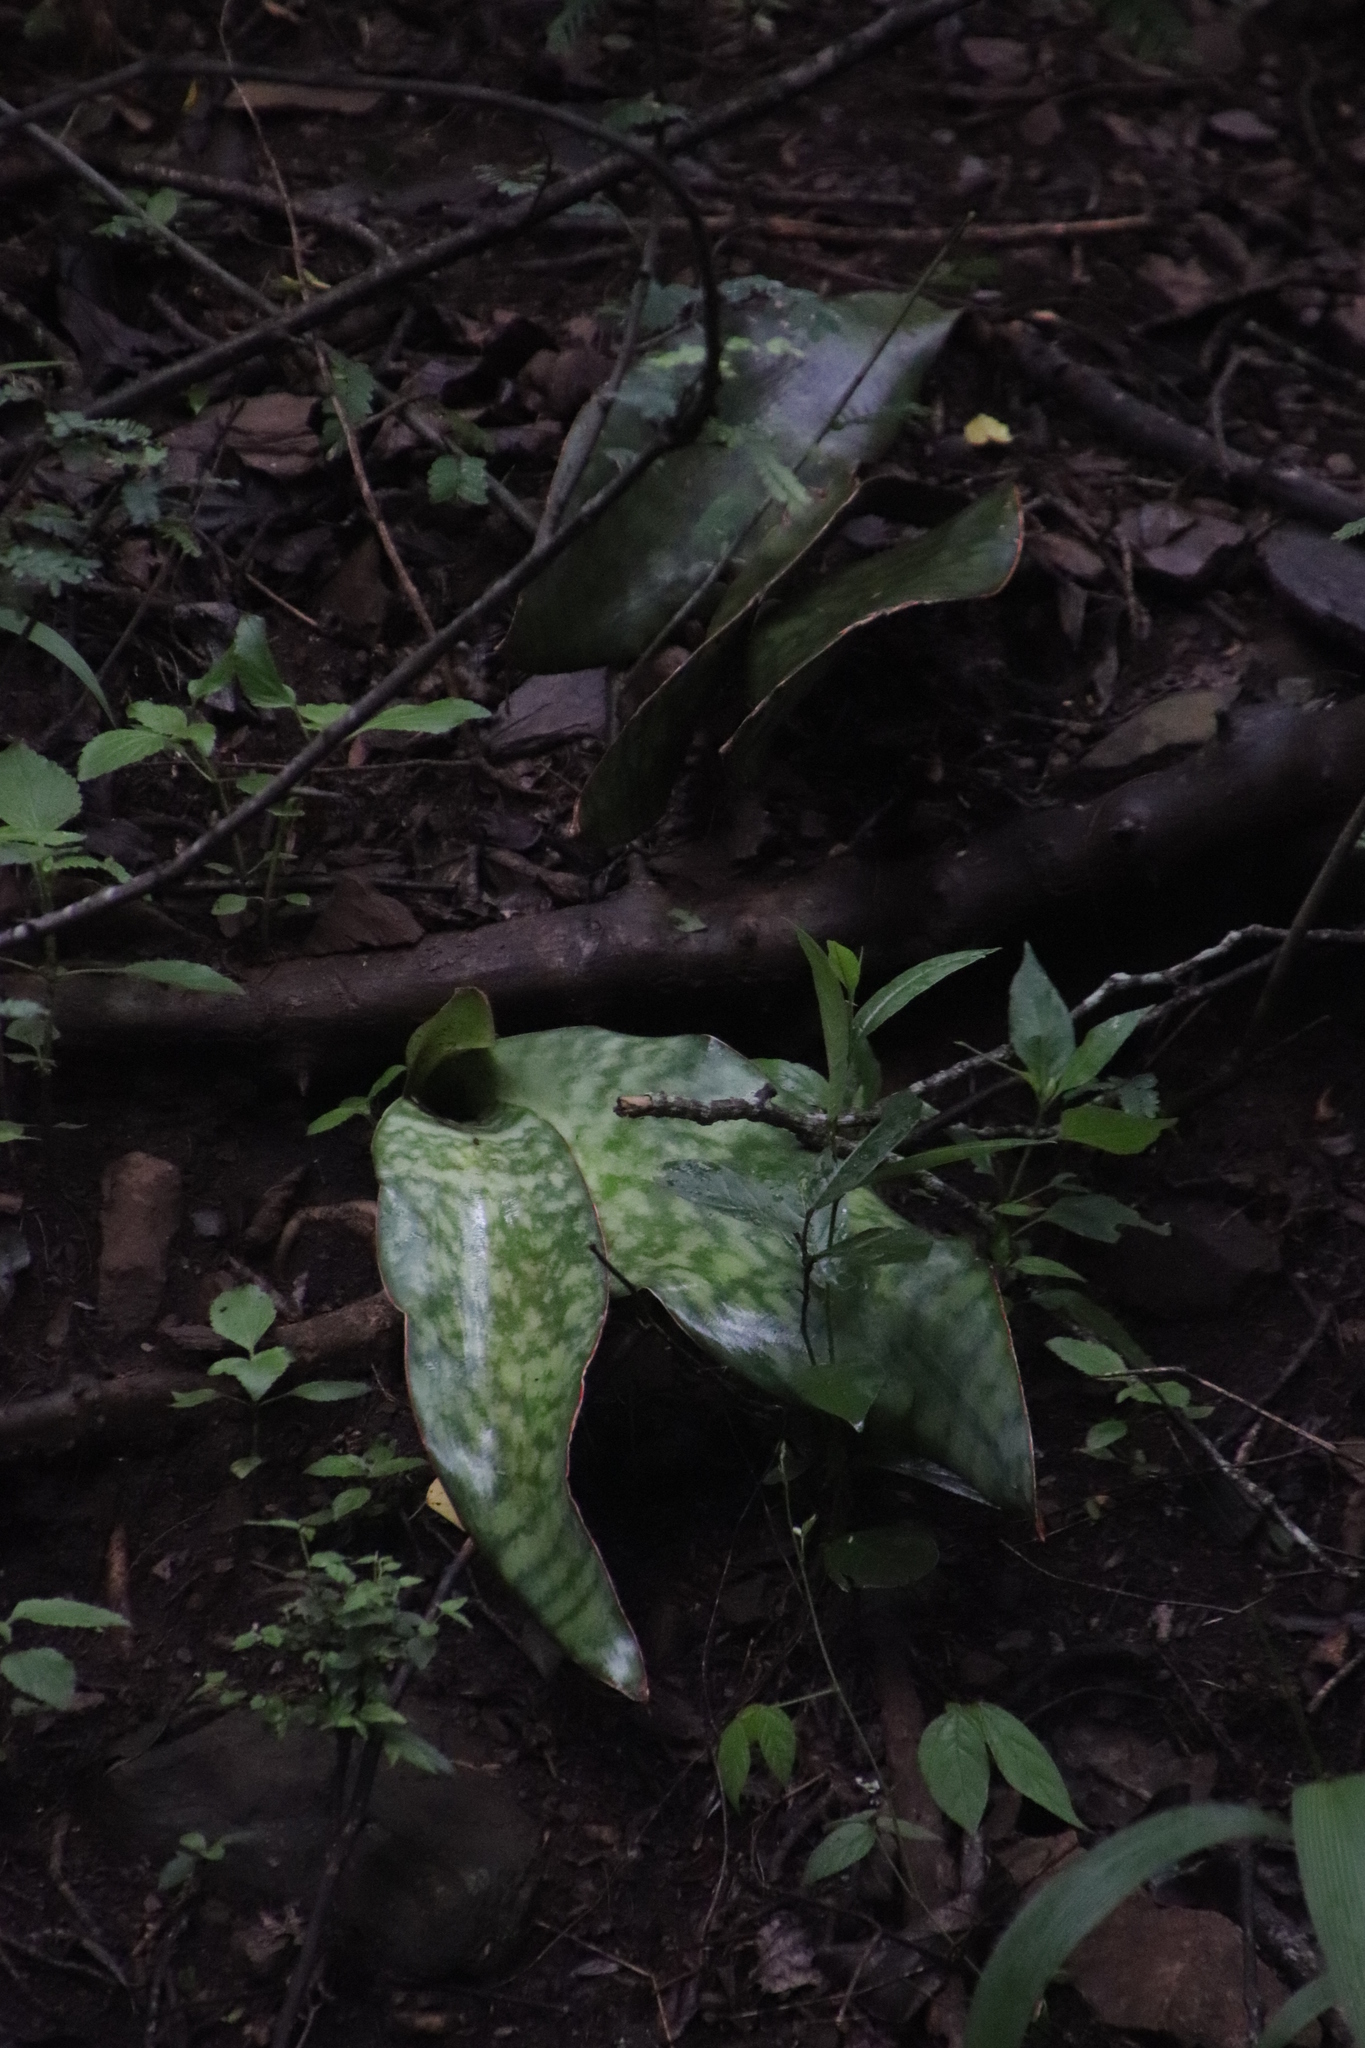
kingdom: Plantae
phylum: Tracheophyta
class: Liliopsida
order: Asparagales
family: Asparagaceae
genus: Dracaena
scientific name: Dracaena hyacinthoides
